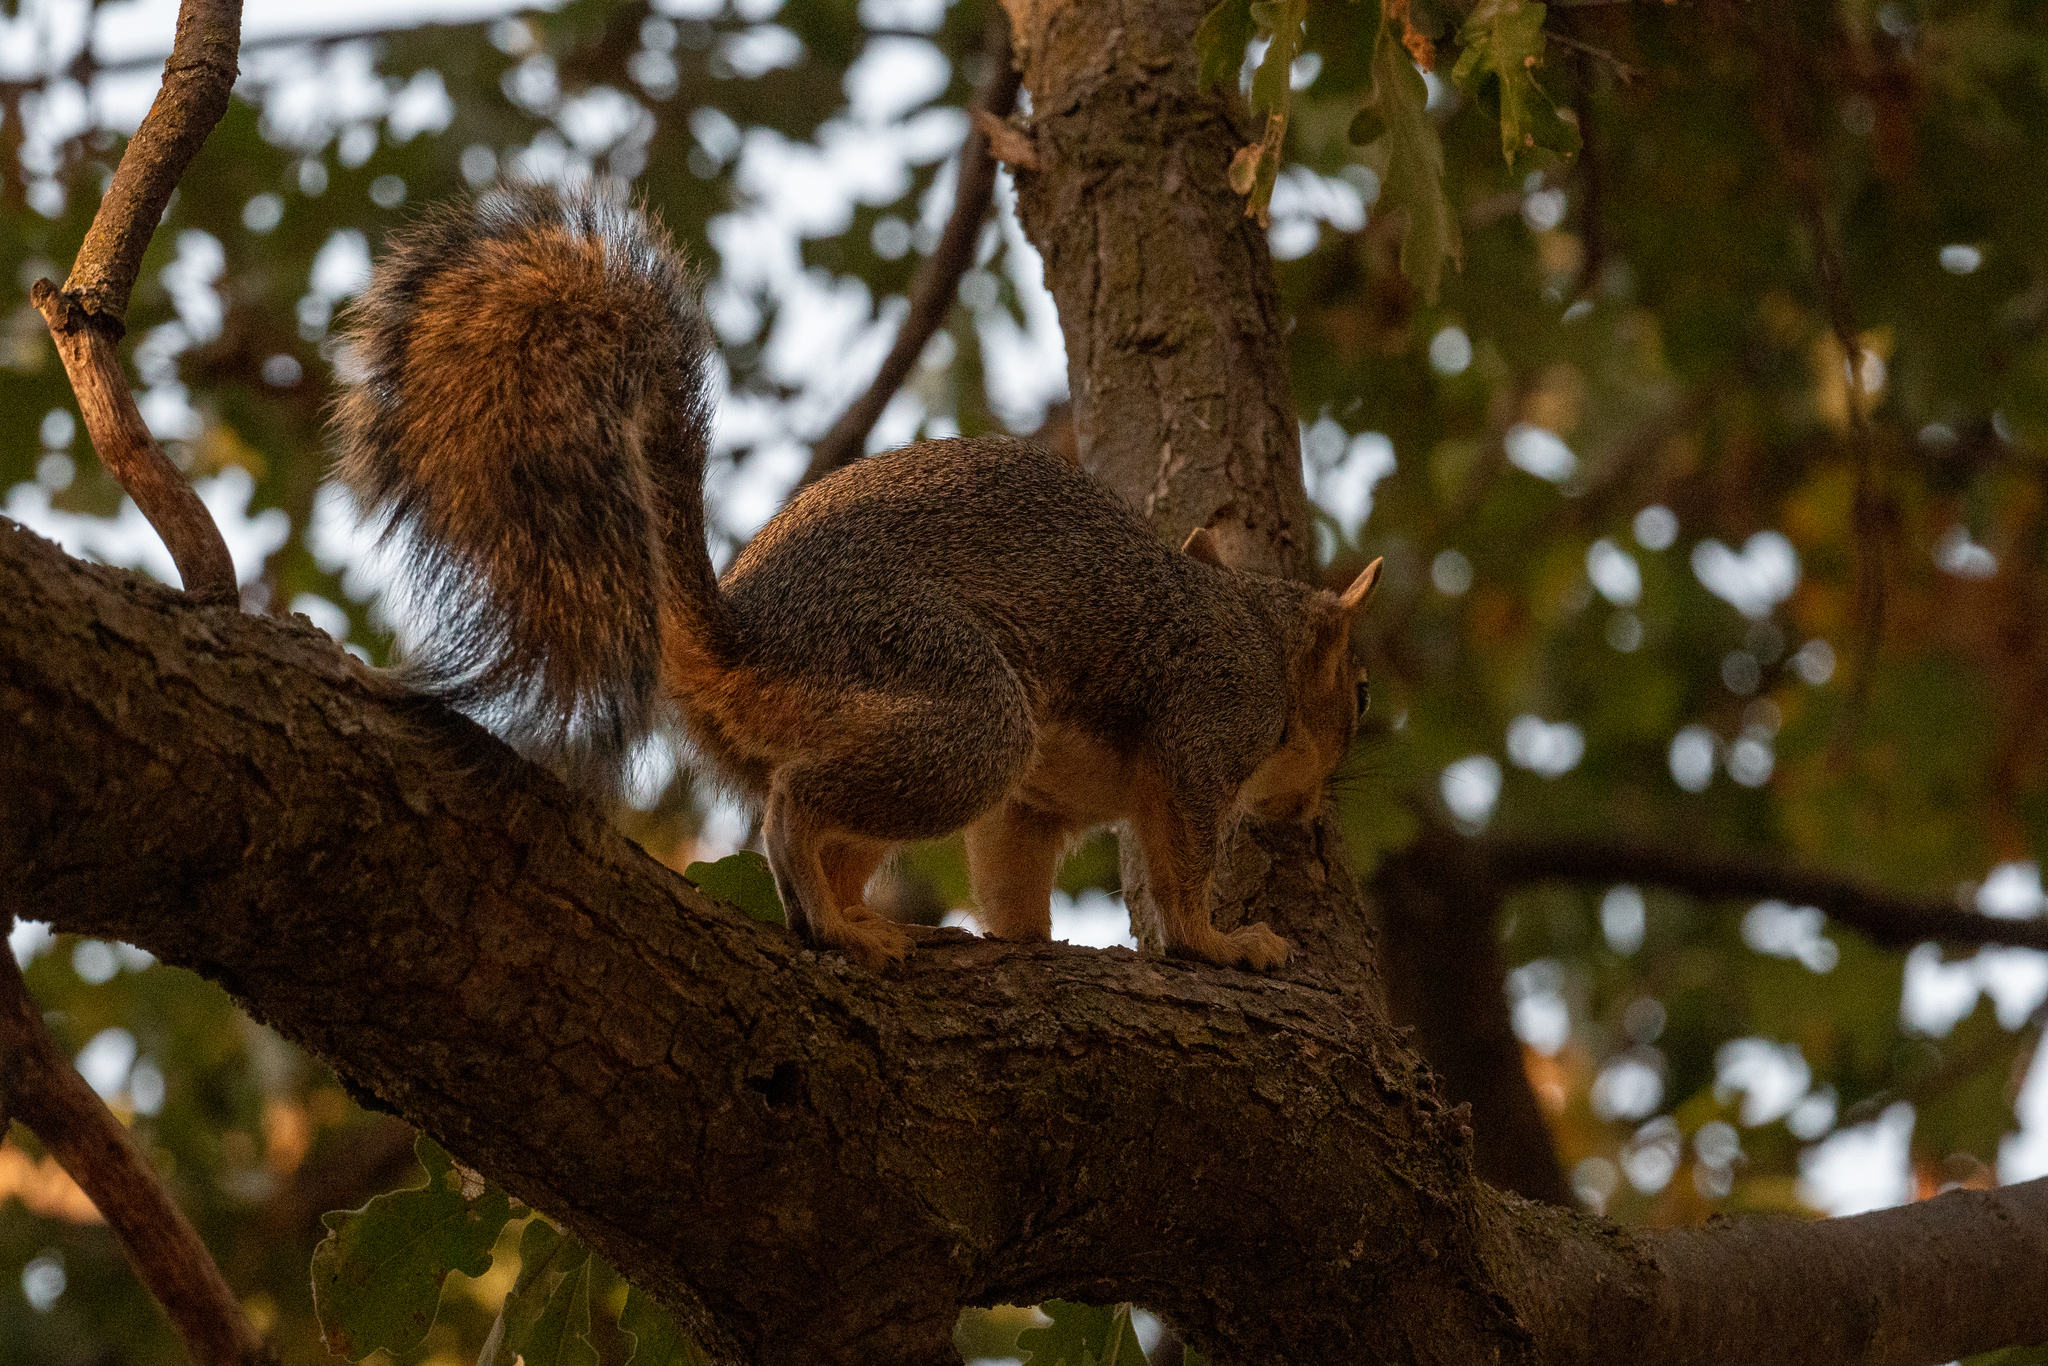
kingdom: Animalia
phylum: Chordata
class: Mammalia
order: Rodentia
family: Sciuridae
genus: Sciurus
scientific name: Sciurus niger
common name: Fox squirrel
